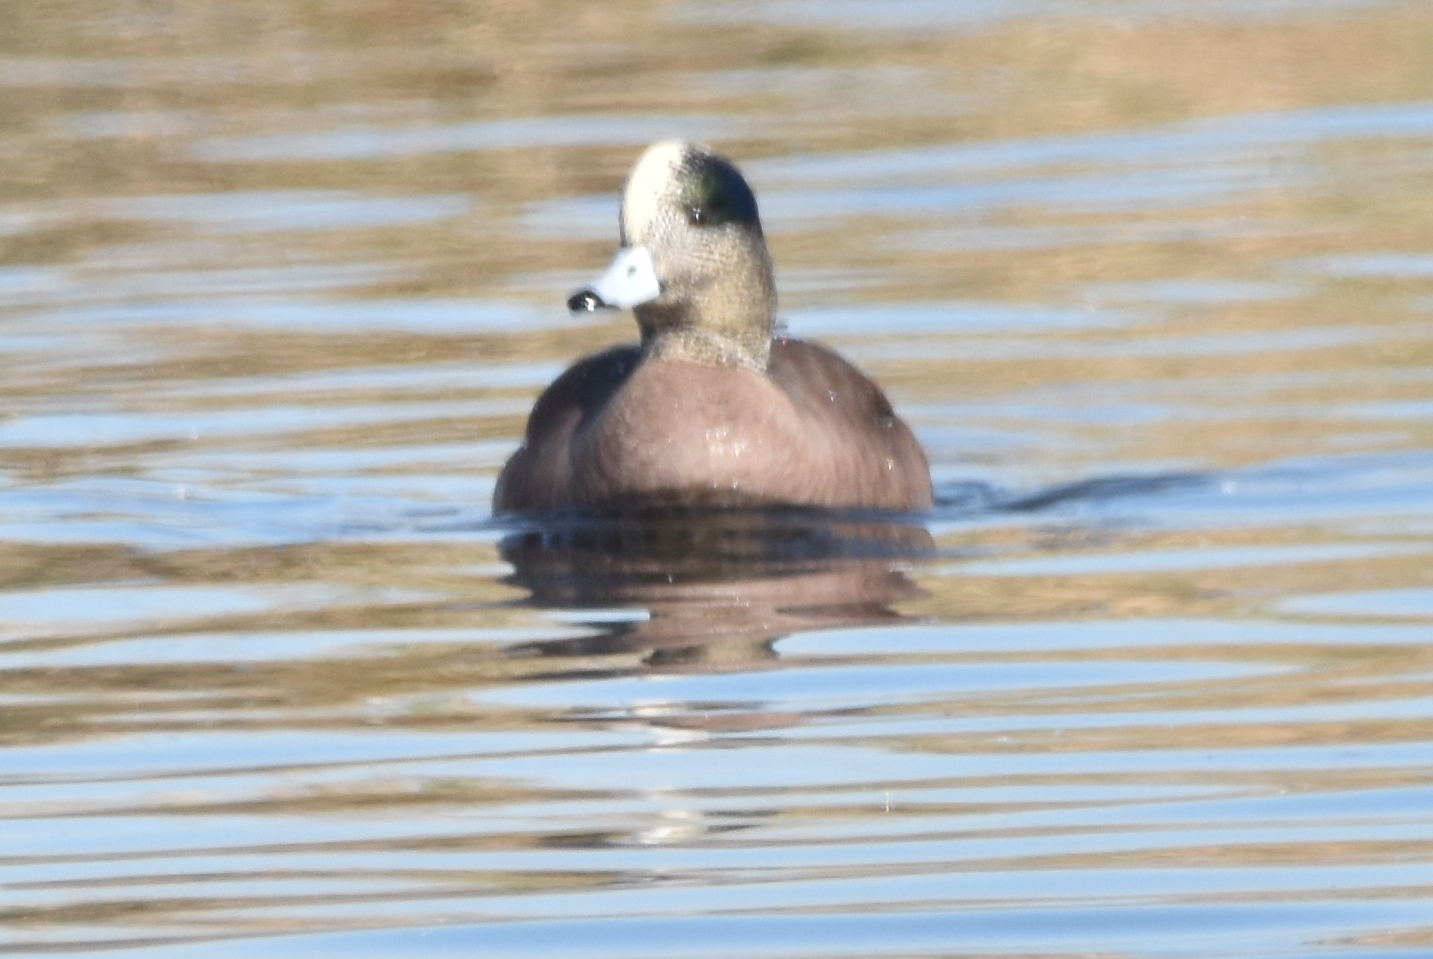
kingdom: Animalia
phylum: Chordata
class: Aves
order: Anseriformes
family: Anatidae
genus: Mareca
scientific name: Mareca americana
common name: American wigeon
